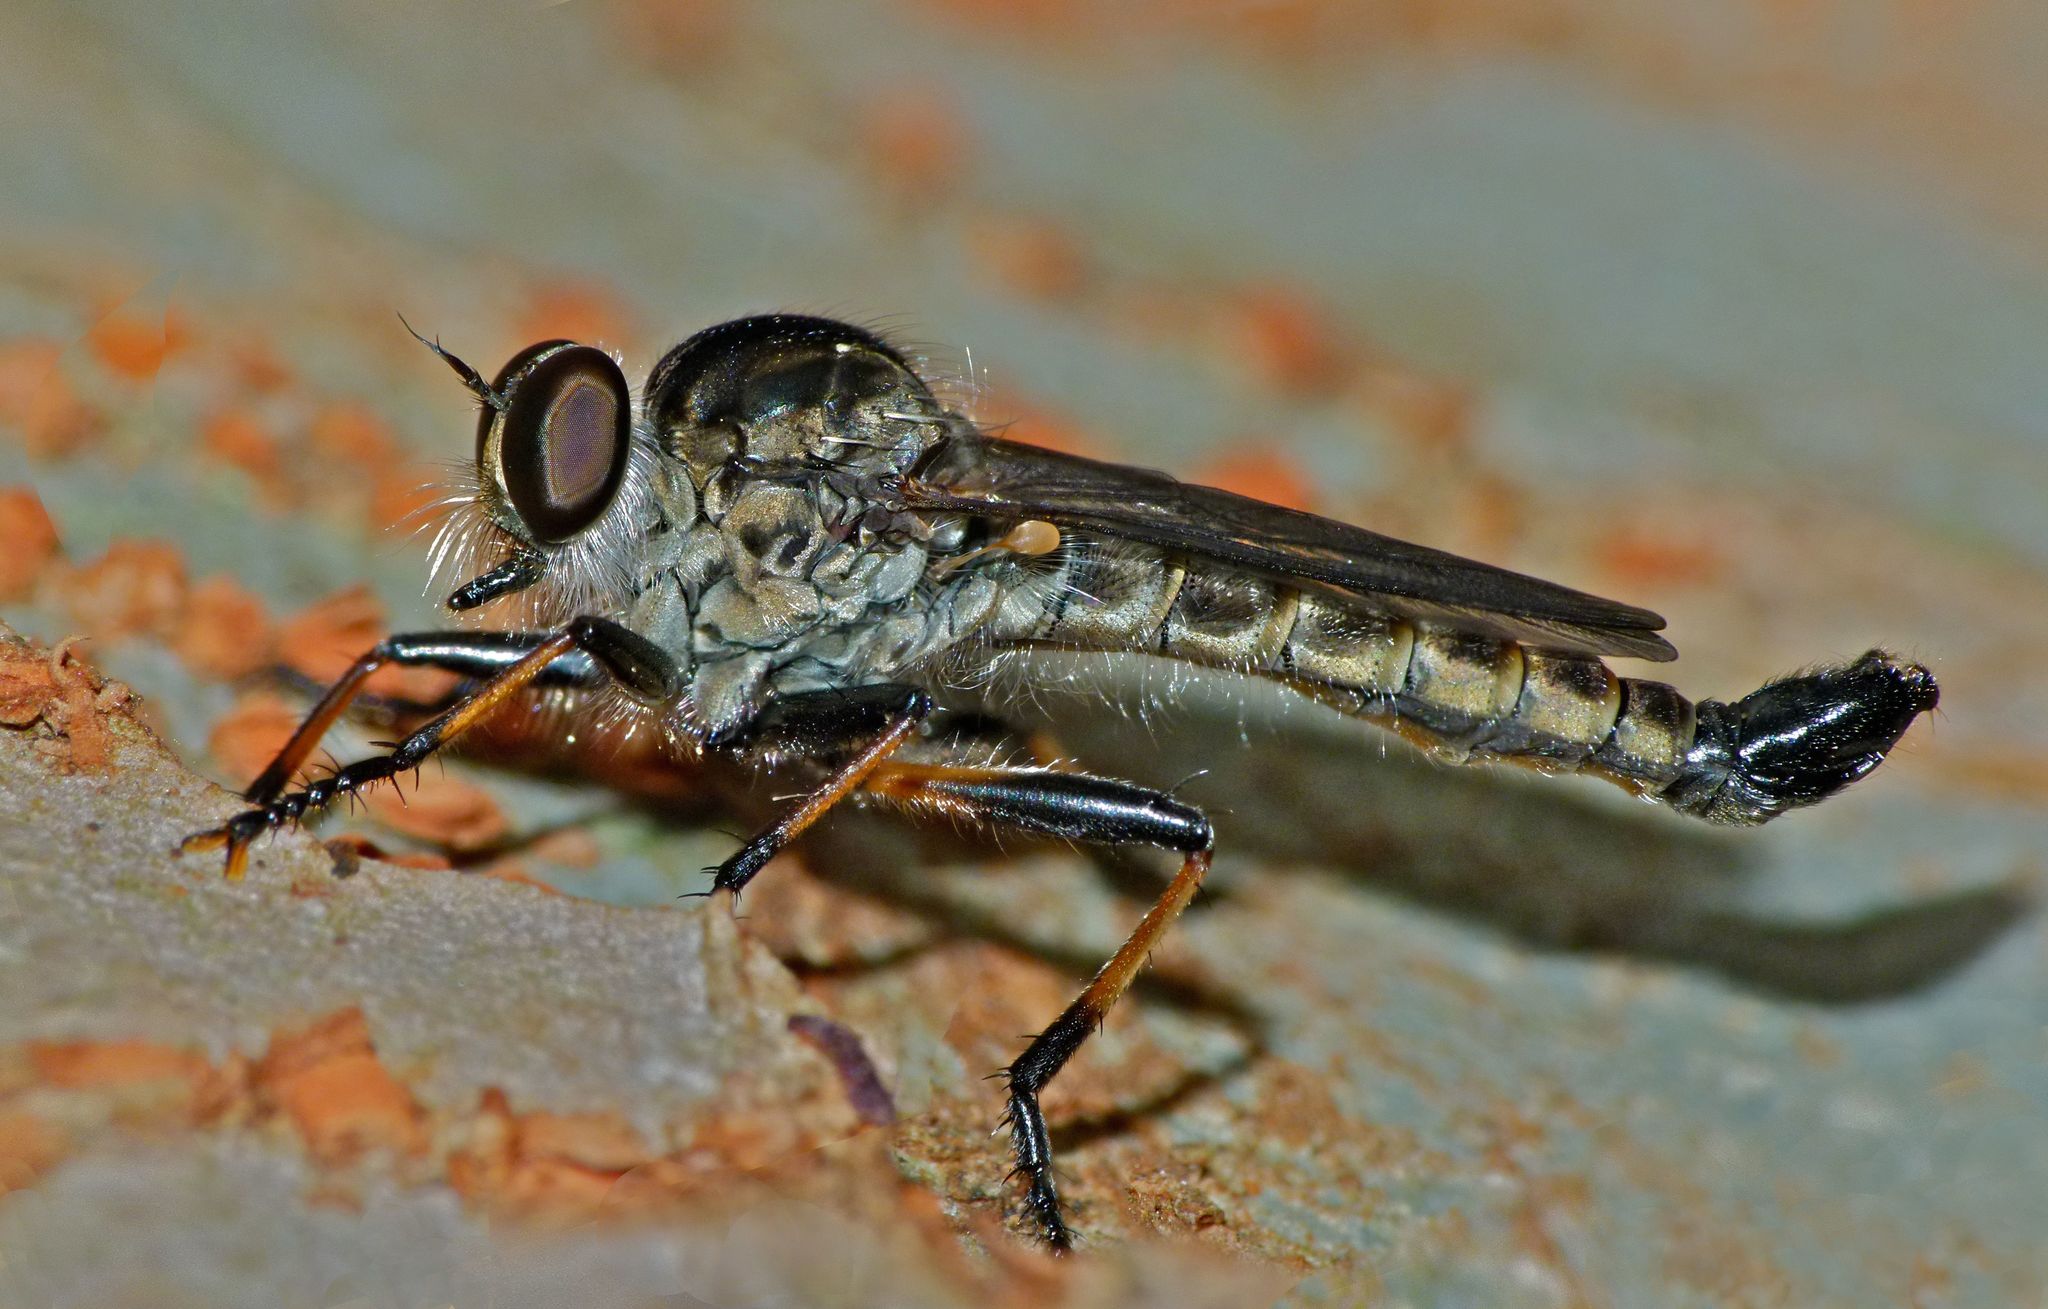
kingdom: Animalia
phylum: Arthropoda
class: Insecta
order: Diptera
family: Asilidae
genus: Cerdistus
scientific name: Cerdistus fuscipennis
